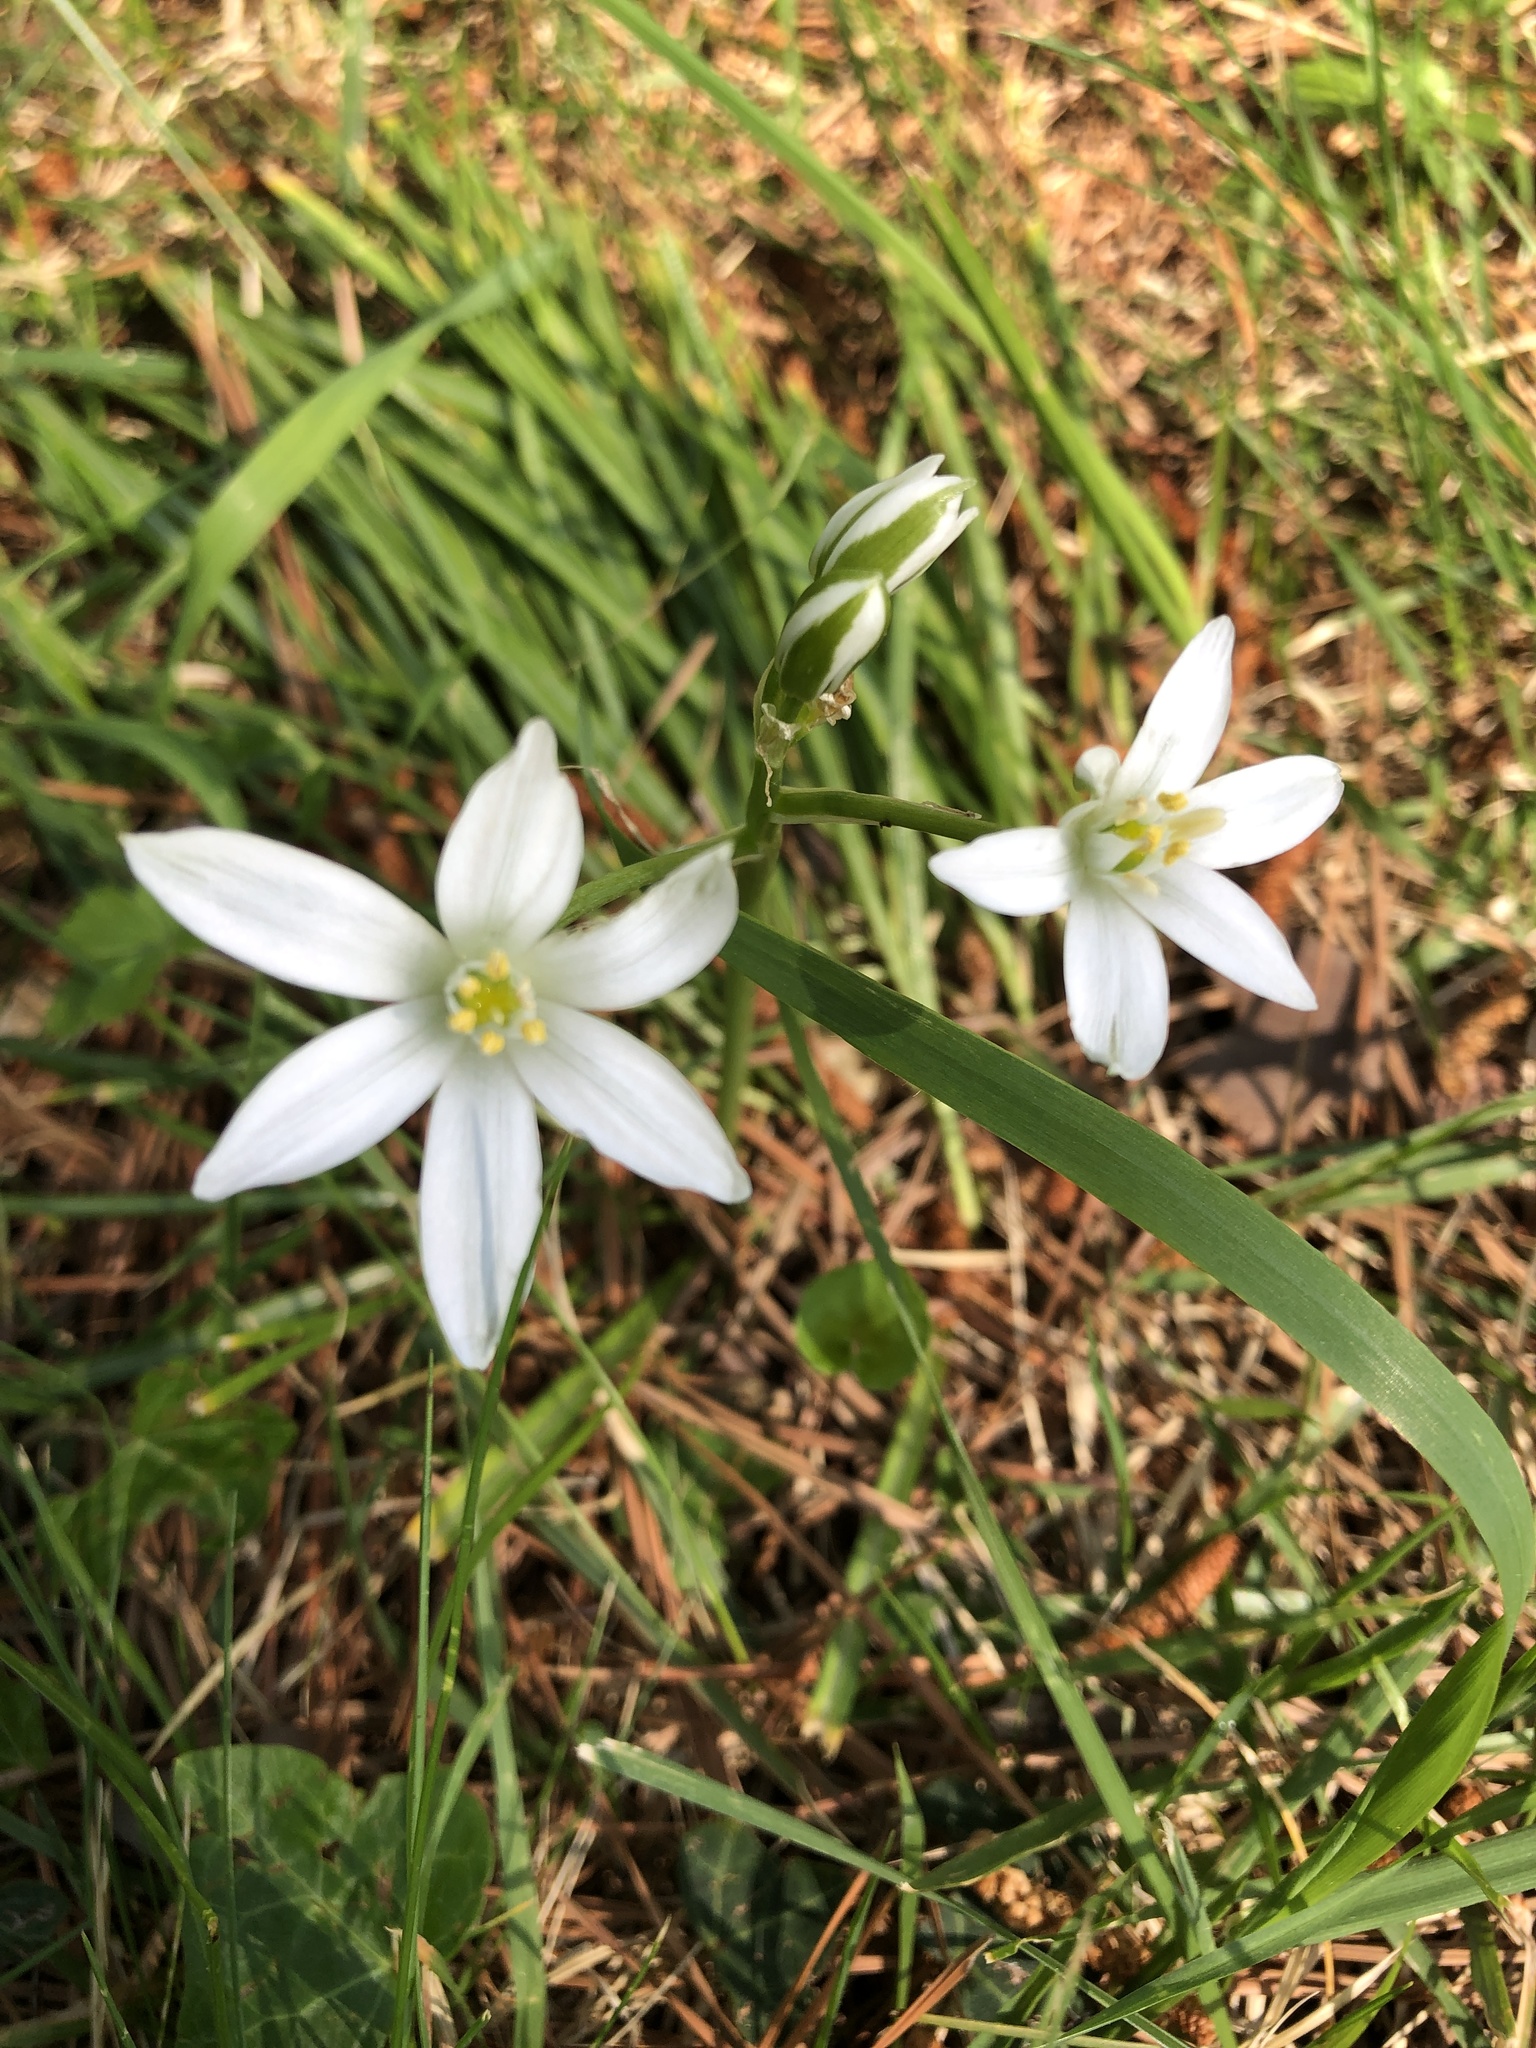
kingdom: Plantae
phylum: Tracheophyta
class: Liliopsida
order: Asparagales
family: Asparagaceae
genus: Ornithogalum
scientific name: Ornithogalum umbellatum
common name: Garden star-of-bethlehem
